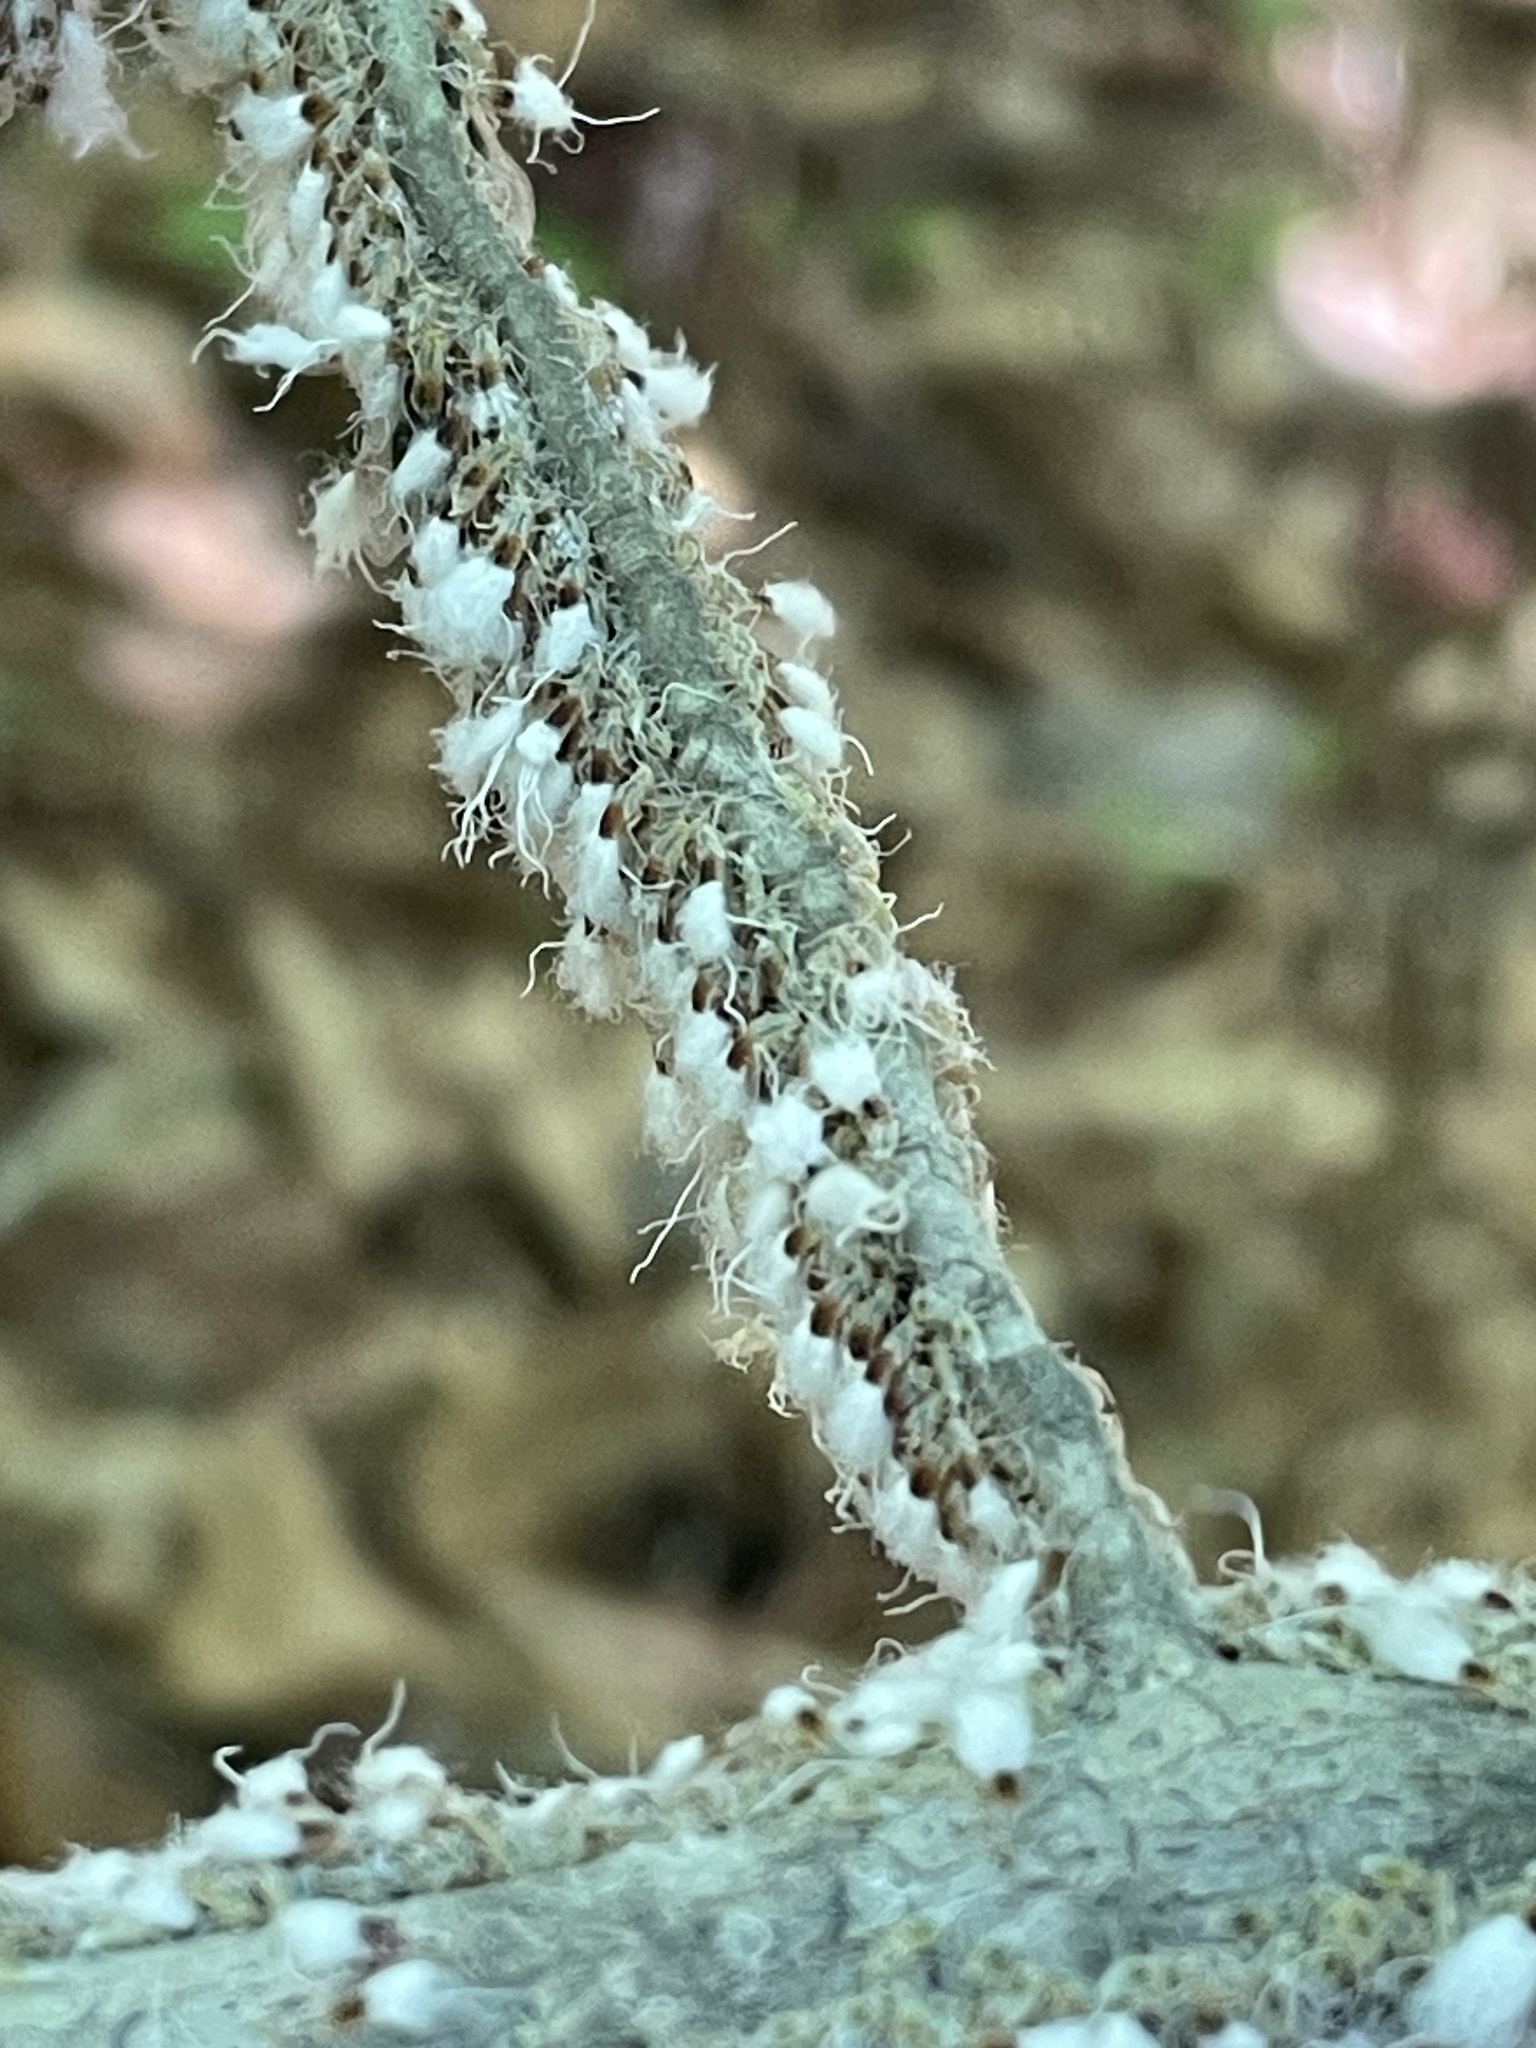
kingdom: Animalia
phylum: Arthropoda
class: Insecta
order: Hemiptera
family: Aphididae
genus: Grylloprociphilus
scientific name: Grylloprociphilus imbricator
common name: Beech blight aphid
